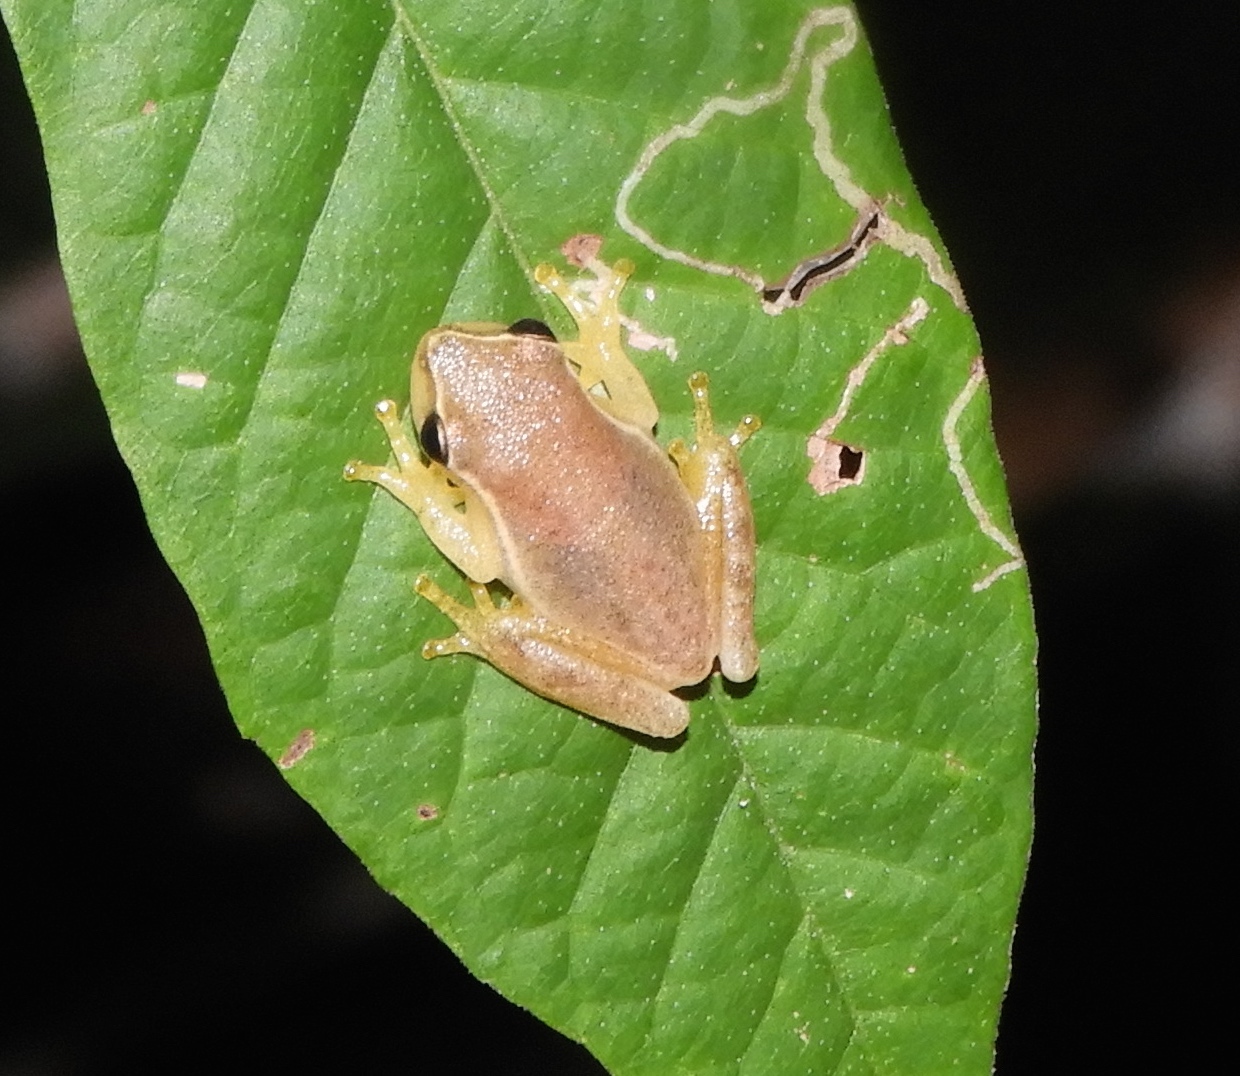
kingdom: Animalia
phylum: Chordata
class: Amphibia
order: Anura
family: Hylidae
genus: Tlalocohyla
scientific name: Tlalocohyla smithii
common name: Dwarf mexican treefrog
